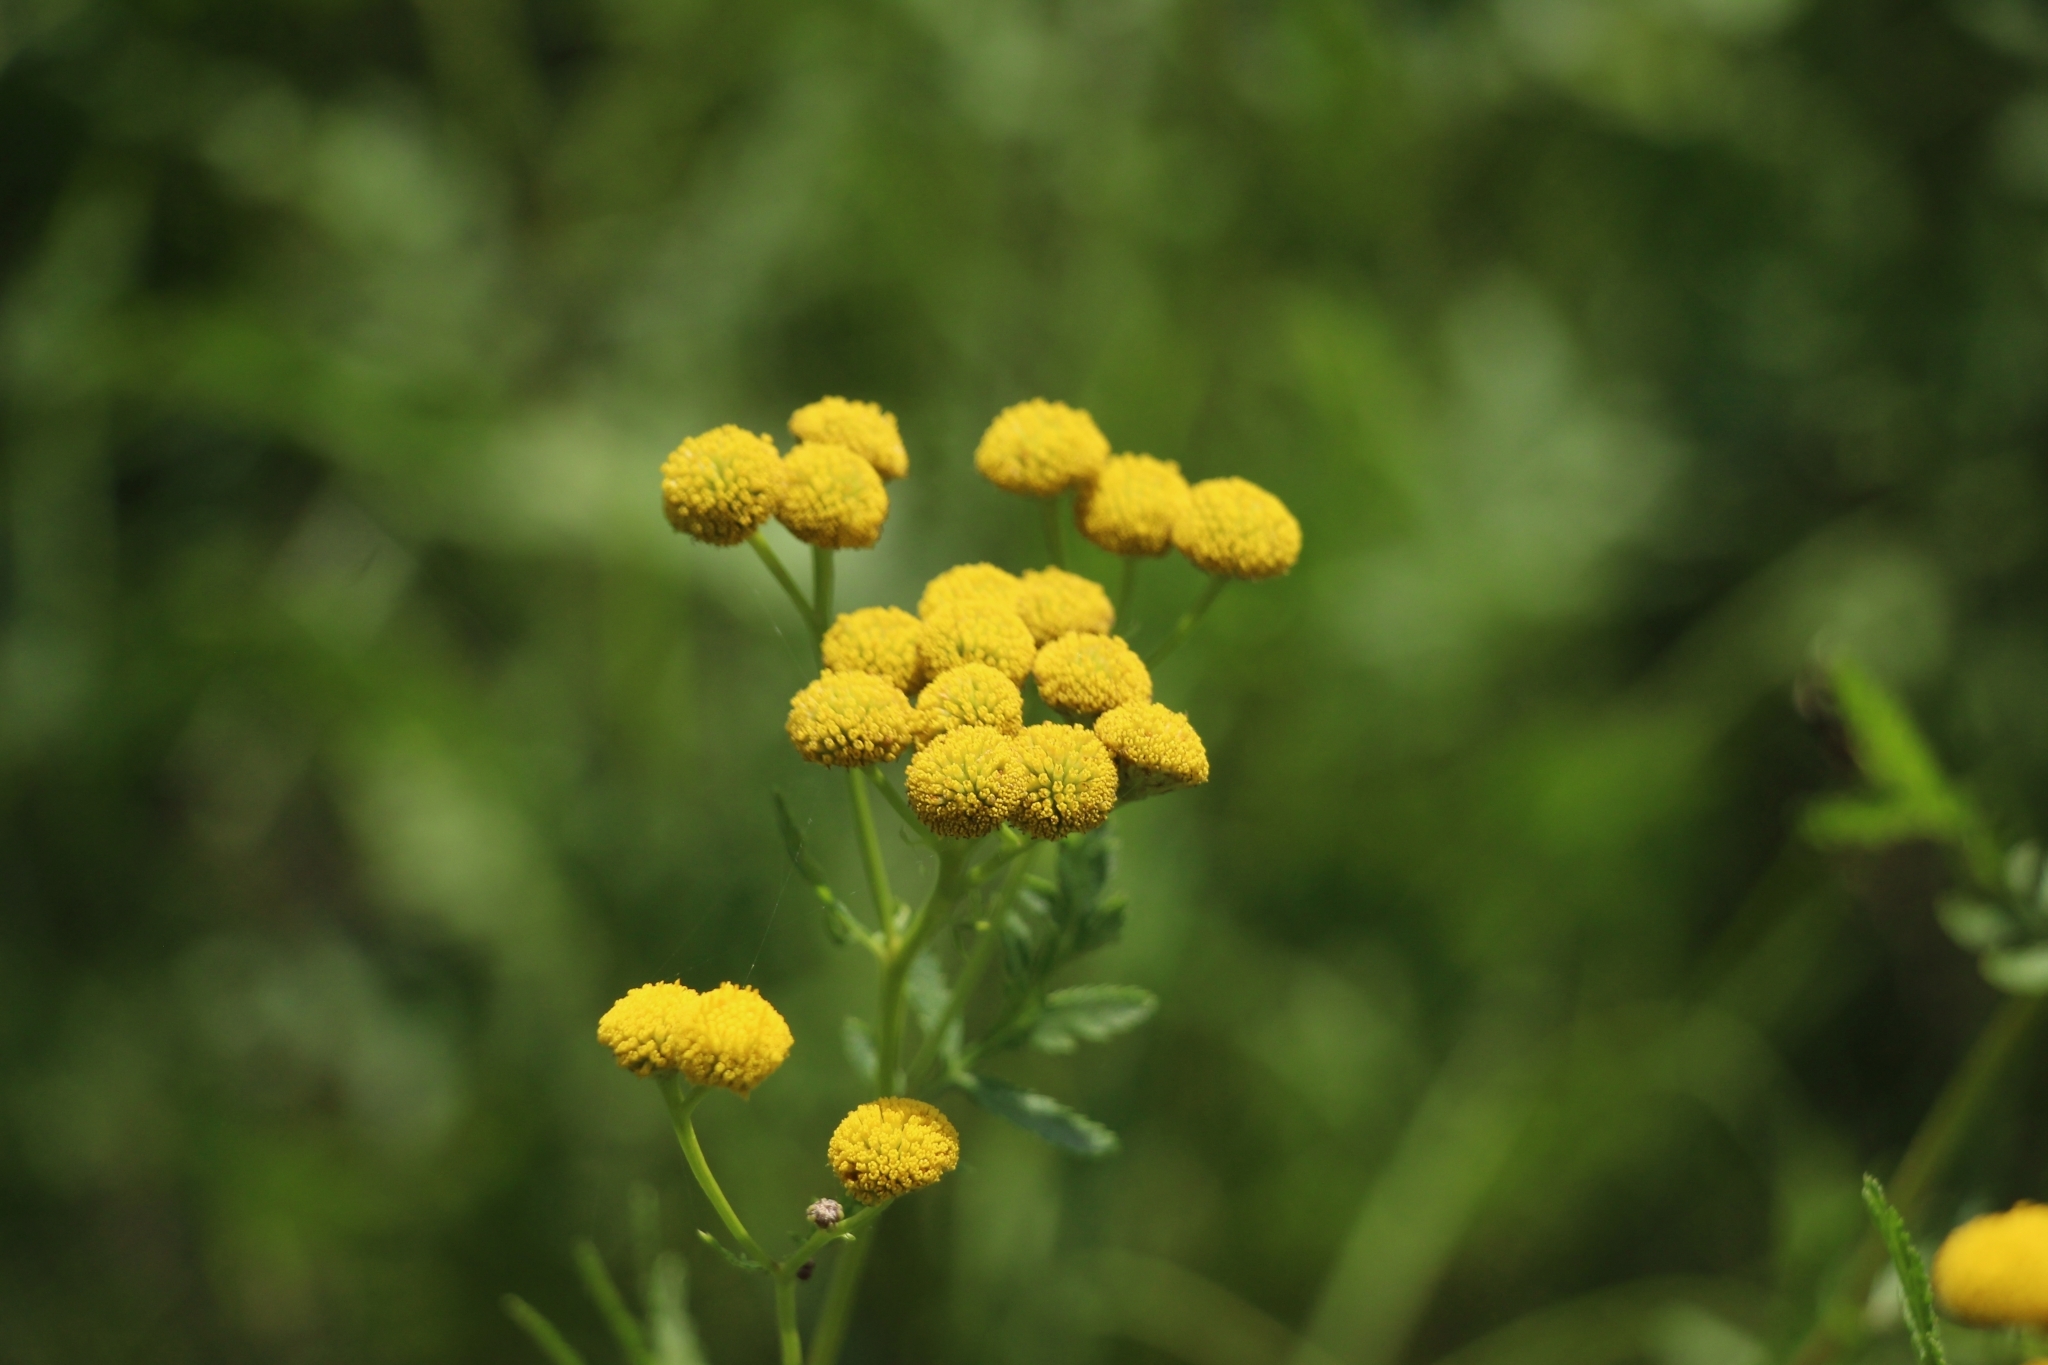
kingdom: Plantae
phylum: Tracheophyta
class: Magnoliopsida
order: Asterales
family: Asteraceae
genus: Tanacetum
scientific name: Tanacetum vulgare
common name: Common tansy
